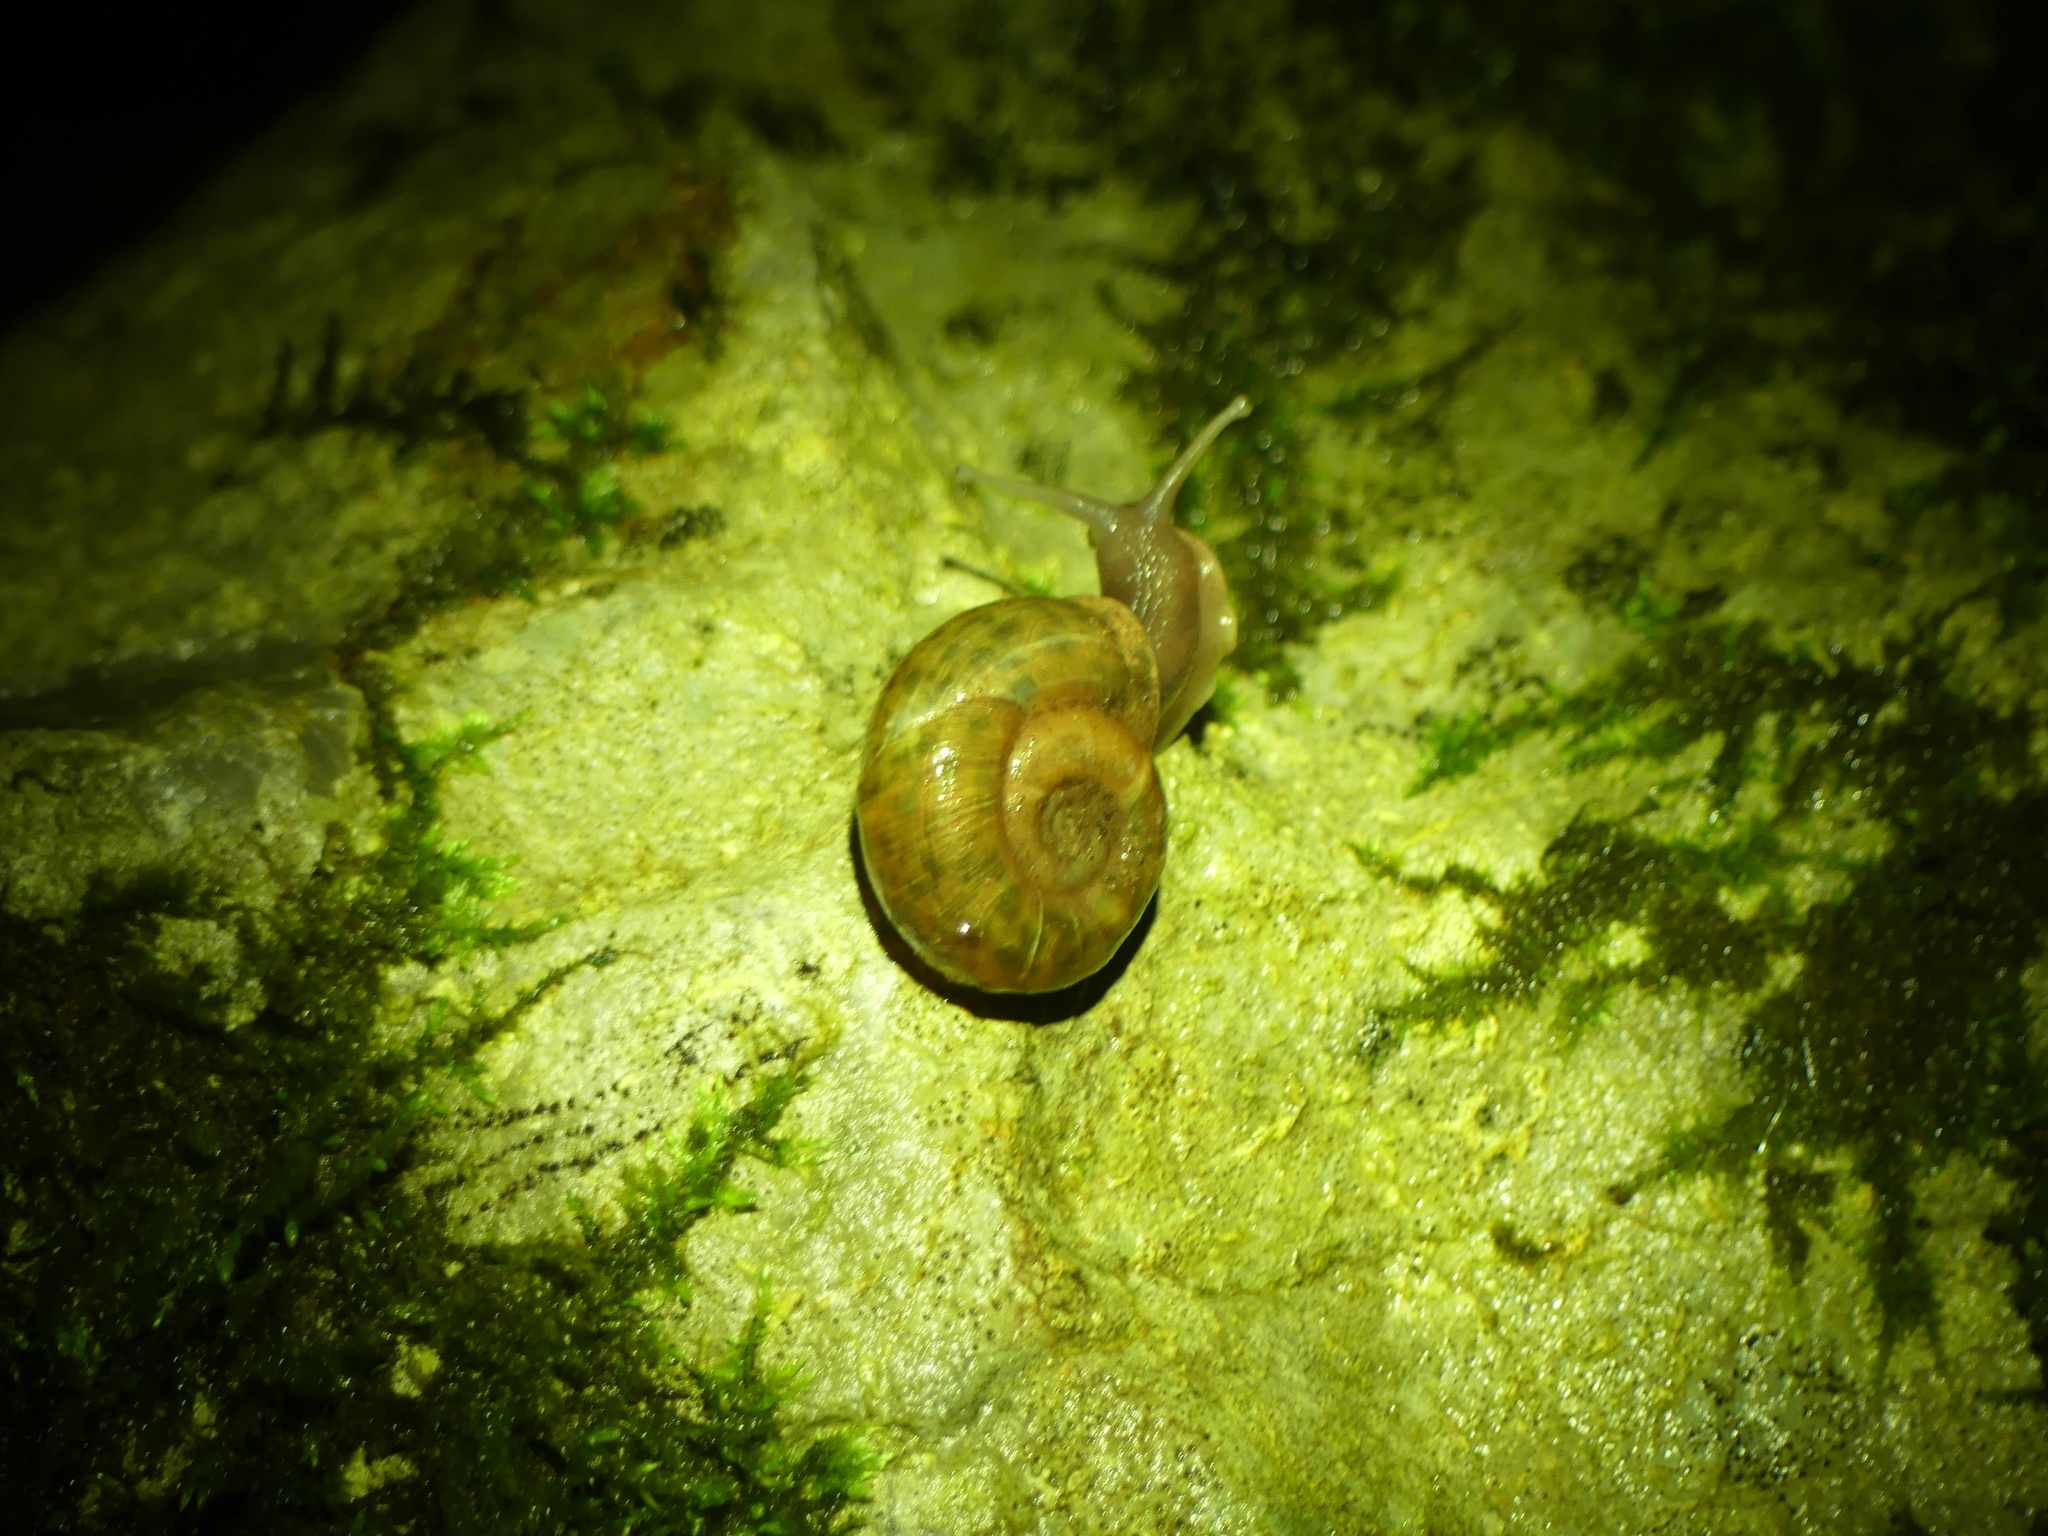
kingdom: Animalia
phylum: Mollusca
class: Gastropoda
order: Stylommatophora
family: Elonidae
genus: Elona
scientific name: Elona quimperiana
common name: Quimper snail
